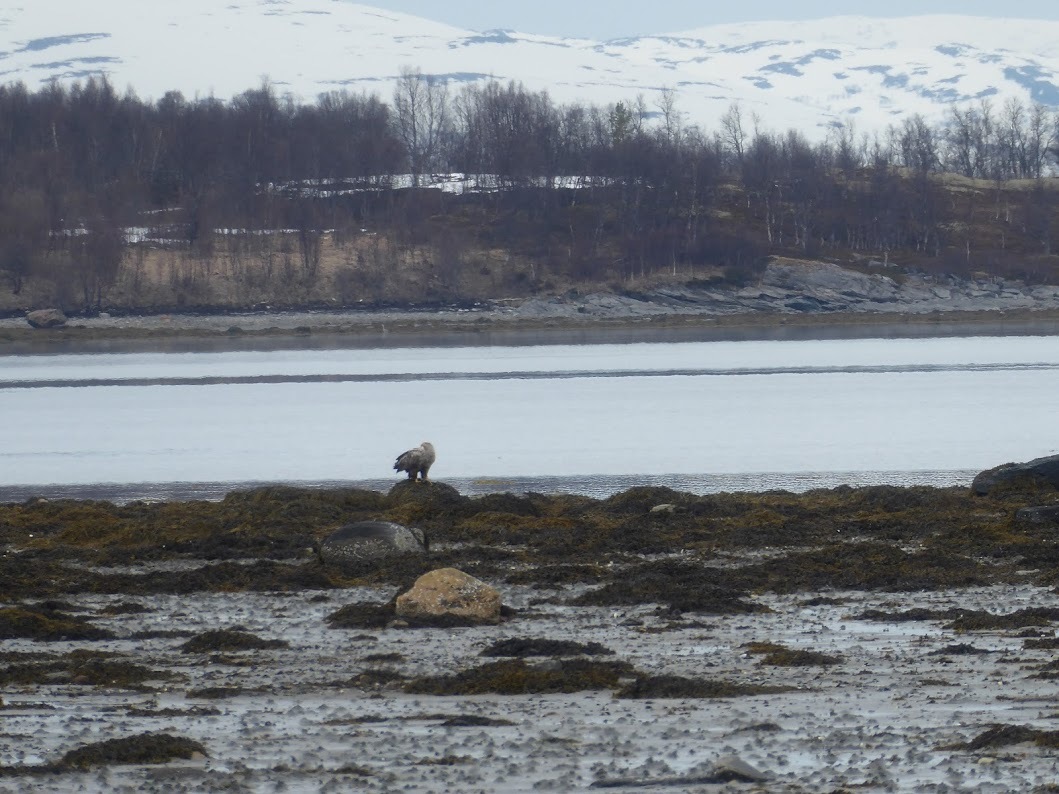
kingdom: Animalia
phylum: Chordata
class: Aves
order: Accipitriformes
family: Accipitridae
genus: Haliaeetus
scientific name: Haliaeetus albicilla
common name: White-tailed eagle
